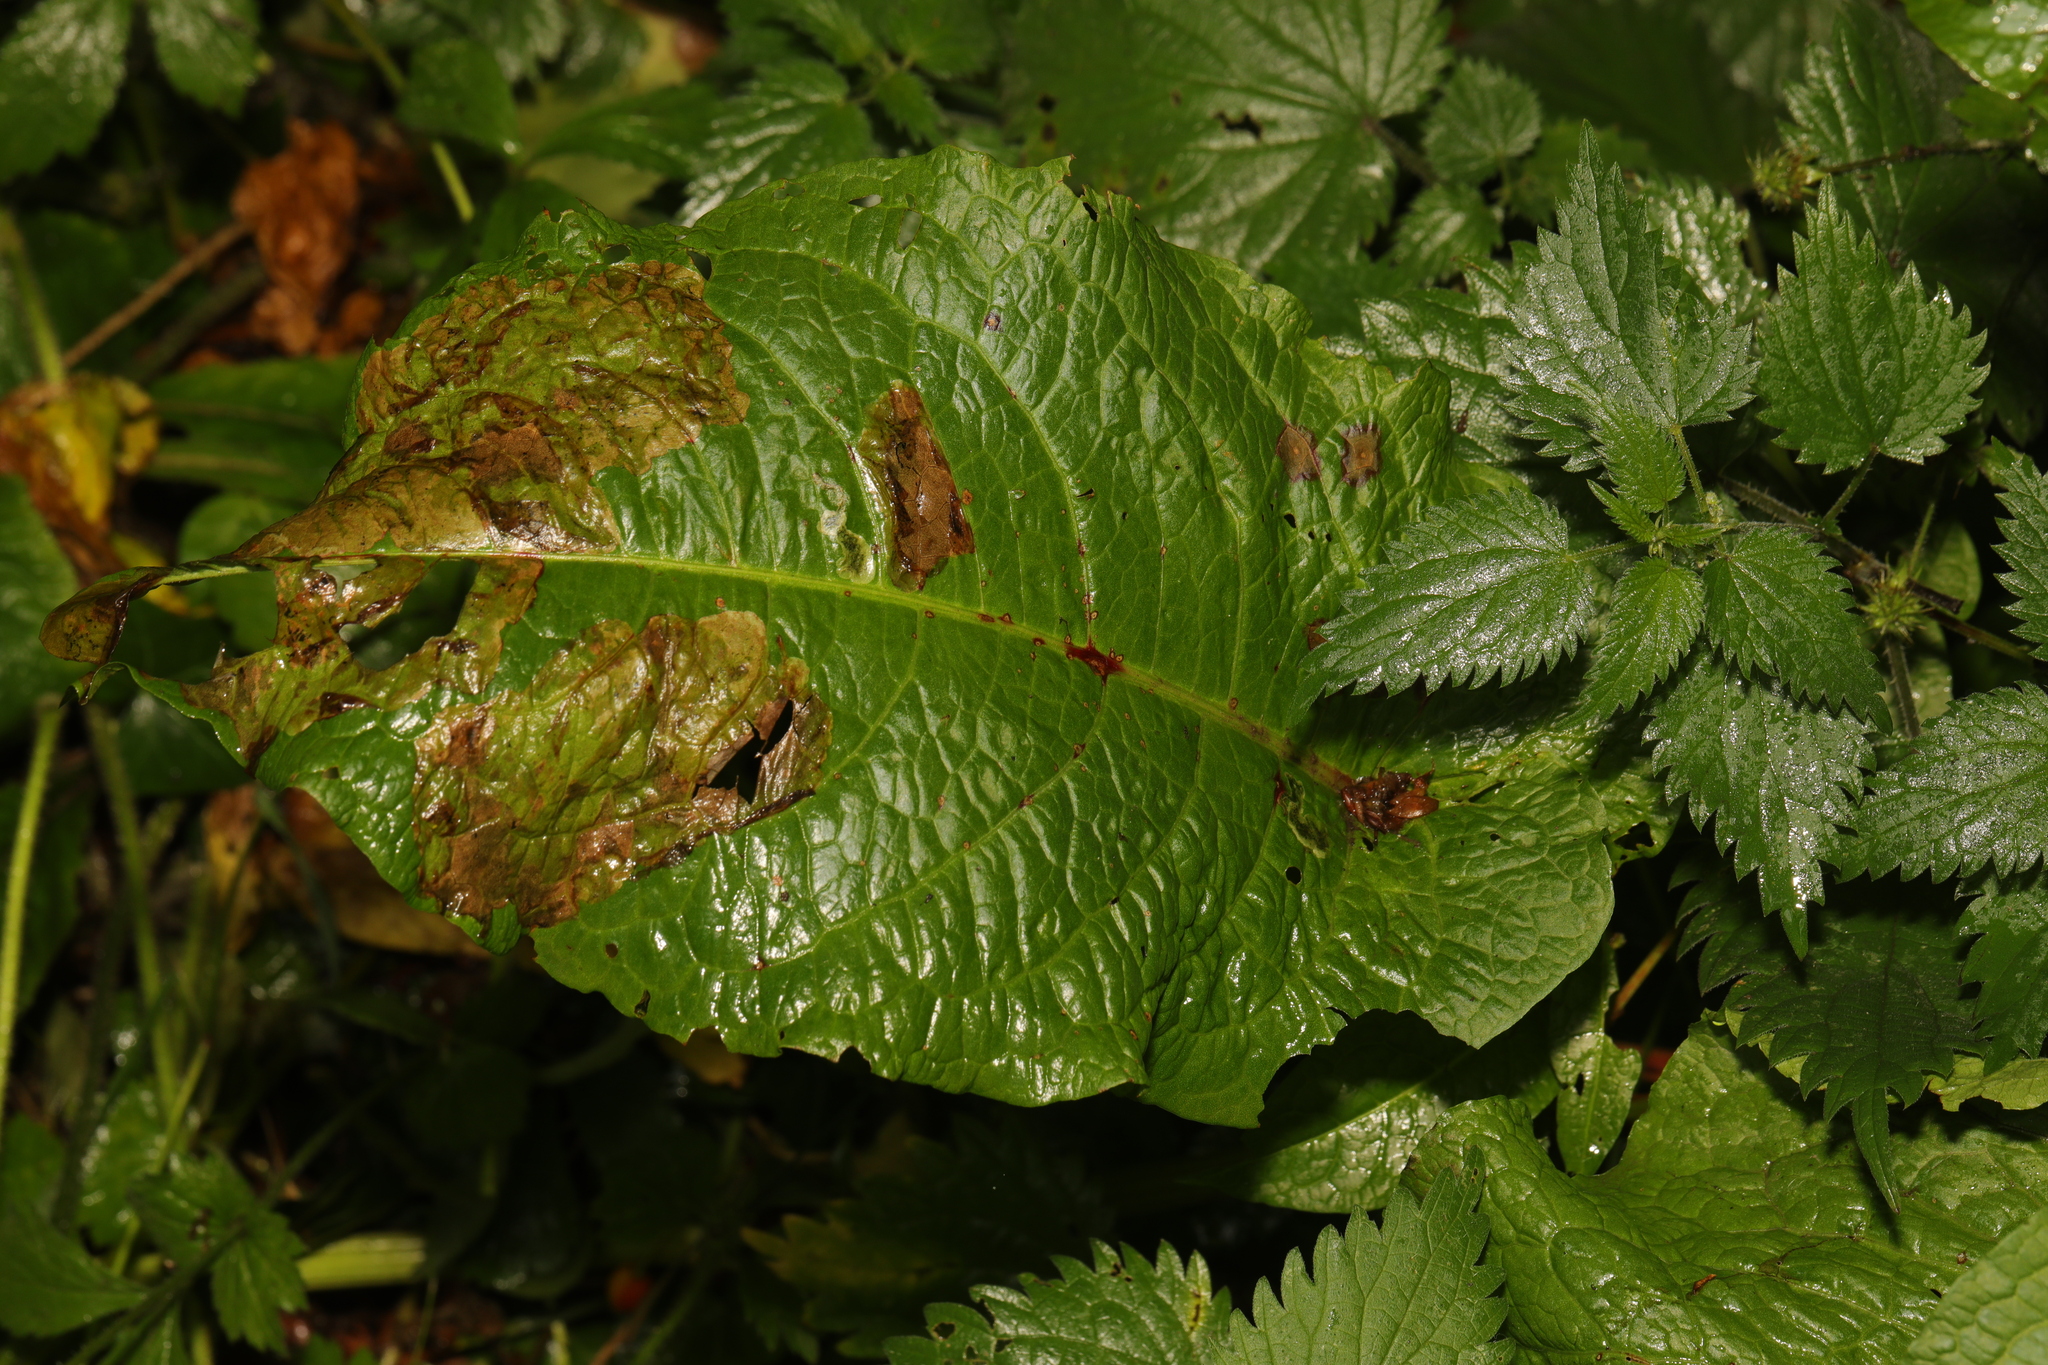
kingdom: Plantae
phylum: Tracheophyta
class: Magnoliopsida
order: Caryophyllales
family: Polygonaceae
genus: Rumex
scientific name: Rumex obtusifolius
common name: Bitter dock
